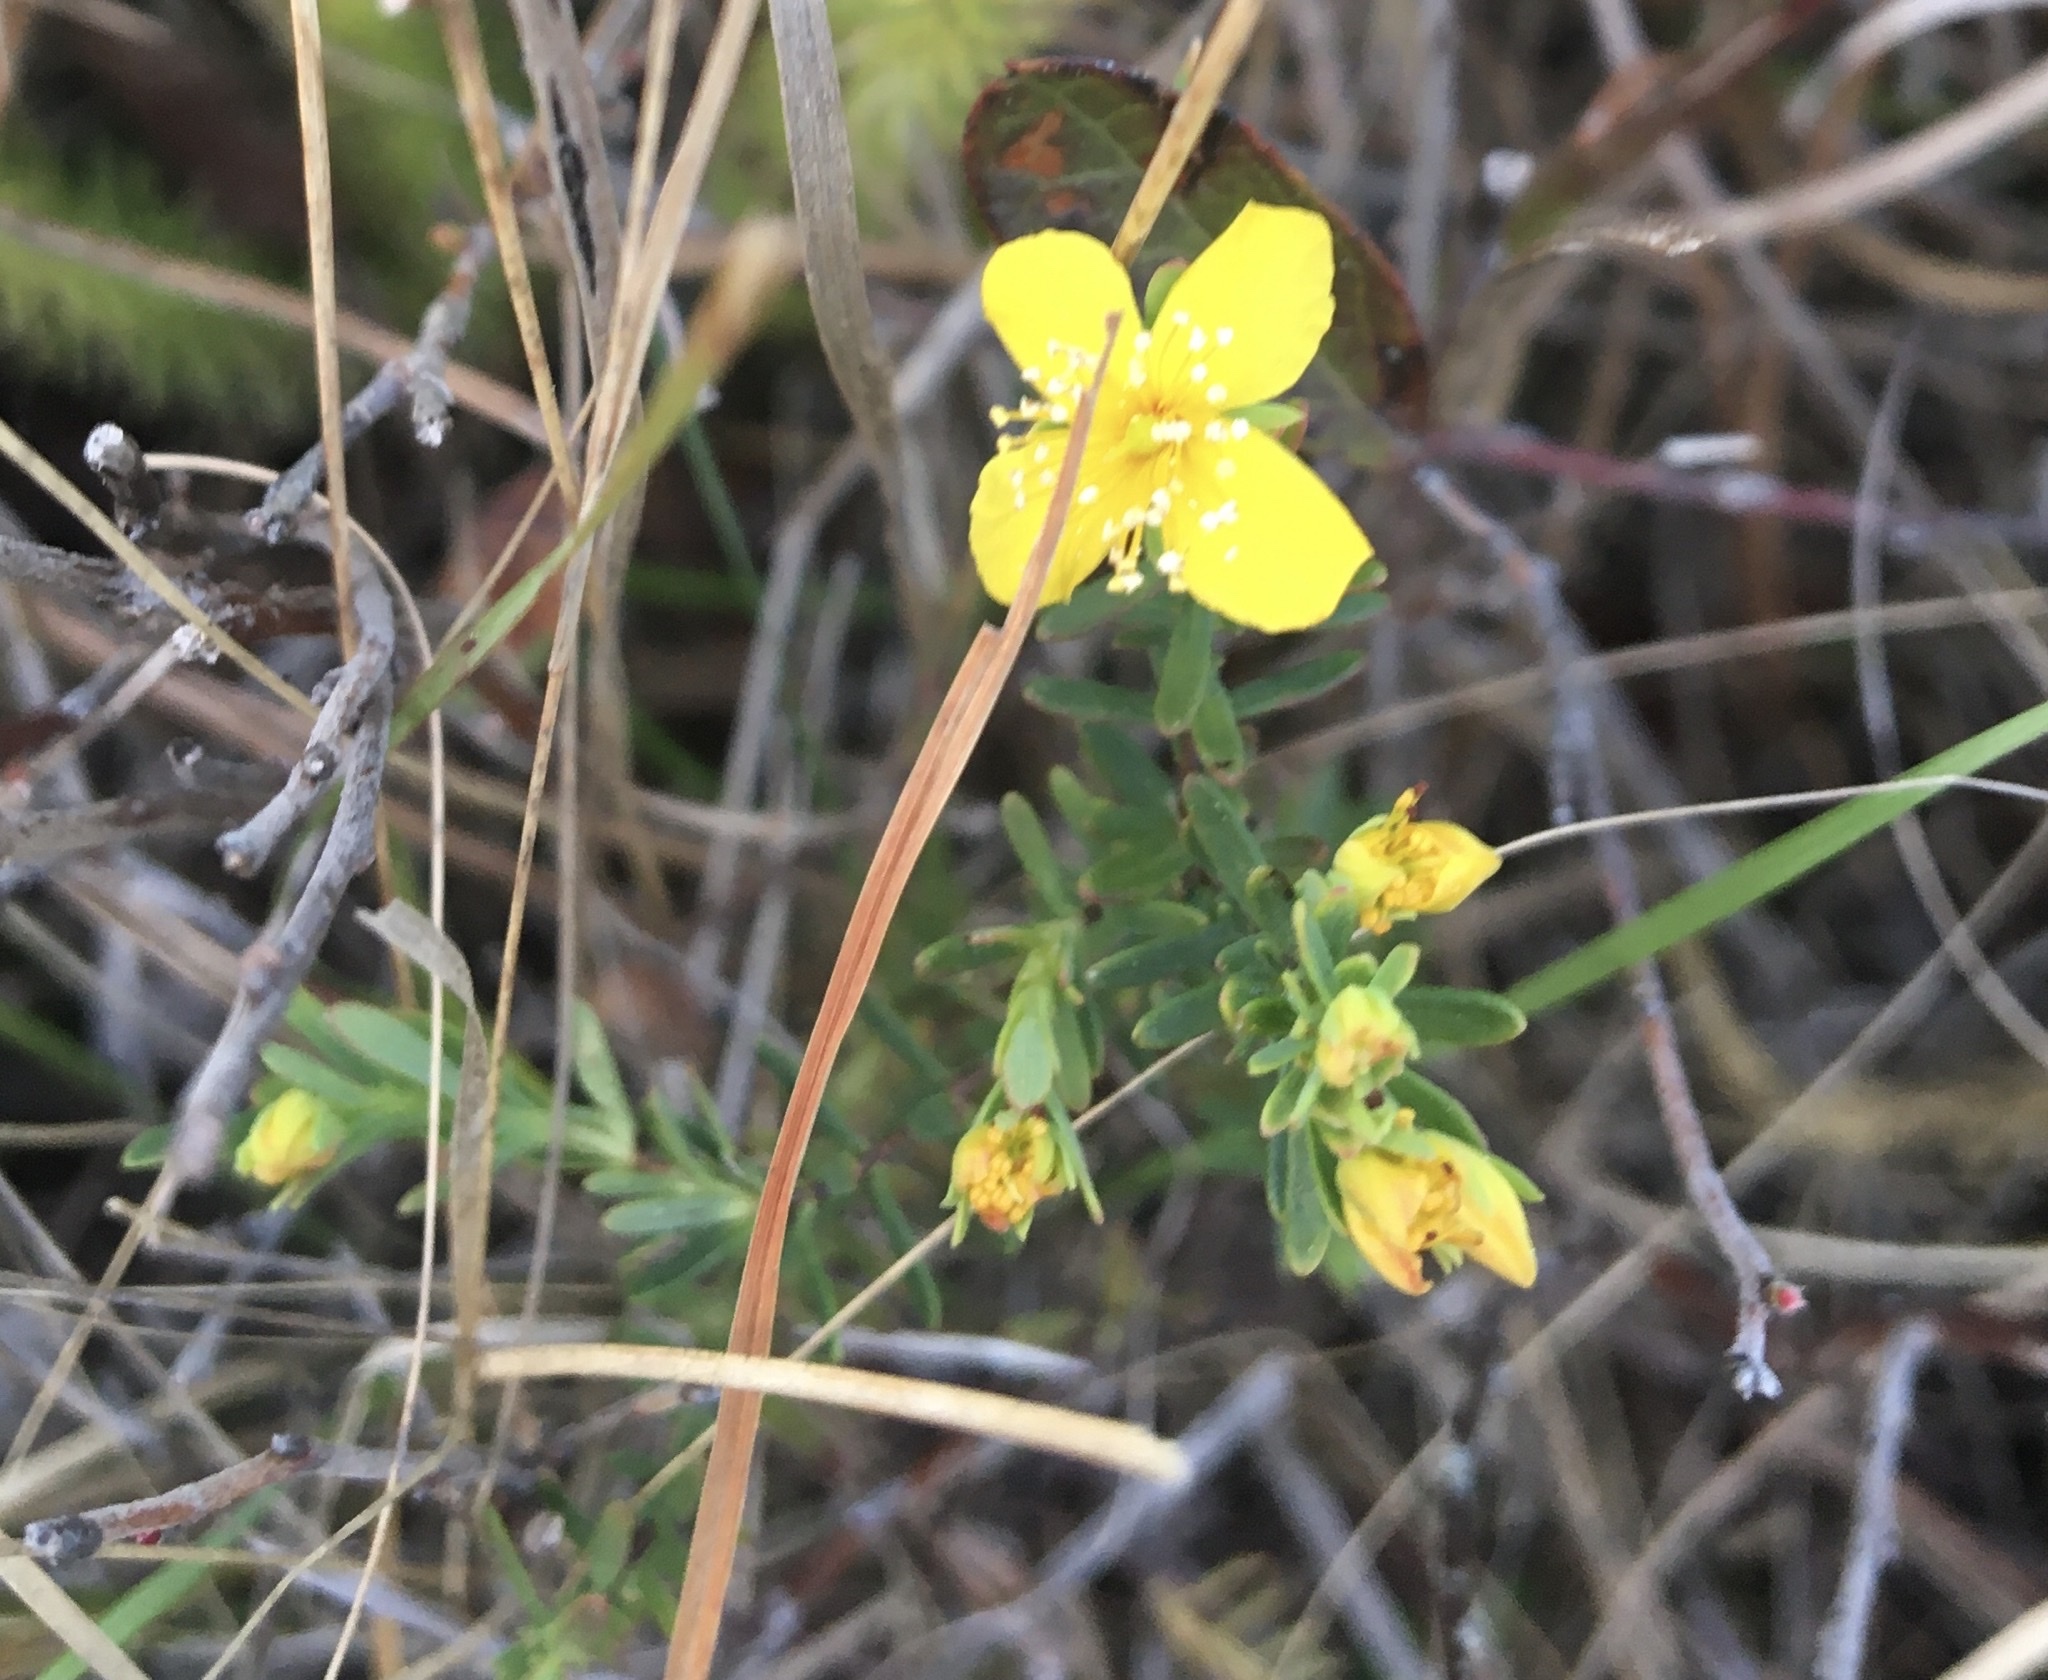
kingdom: Plantae
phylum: Tracheophyta
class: Magnoliopsida
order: Malpighiales
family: Hypericaceae
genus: Hypericum
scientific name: Hypericum microsepalum
